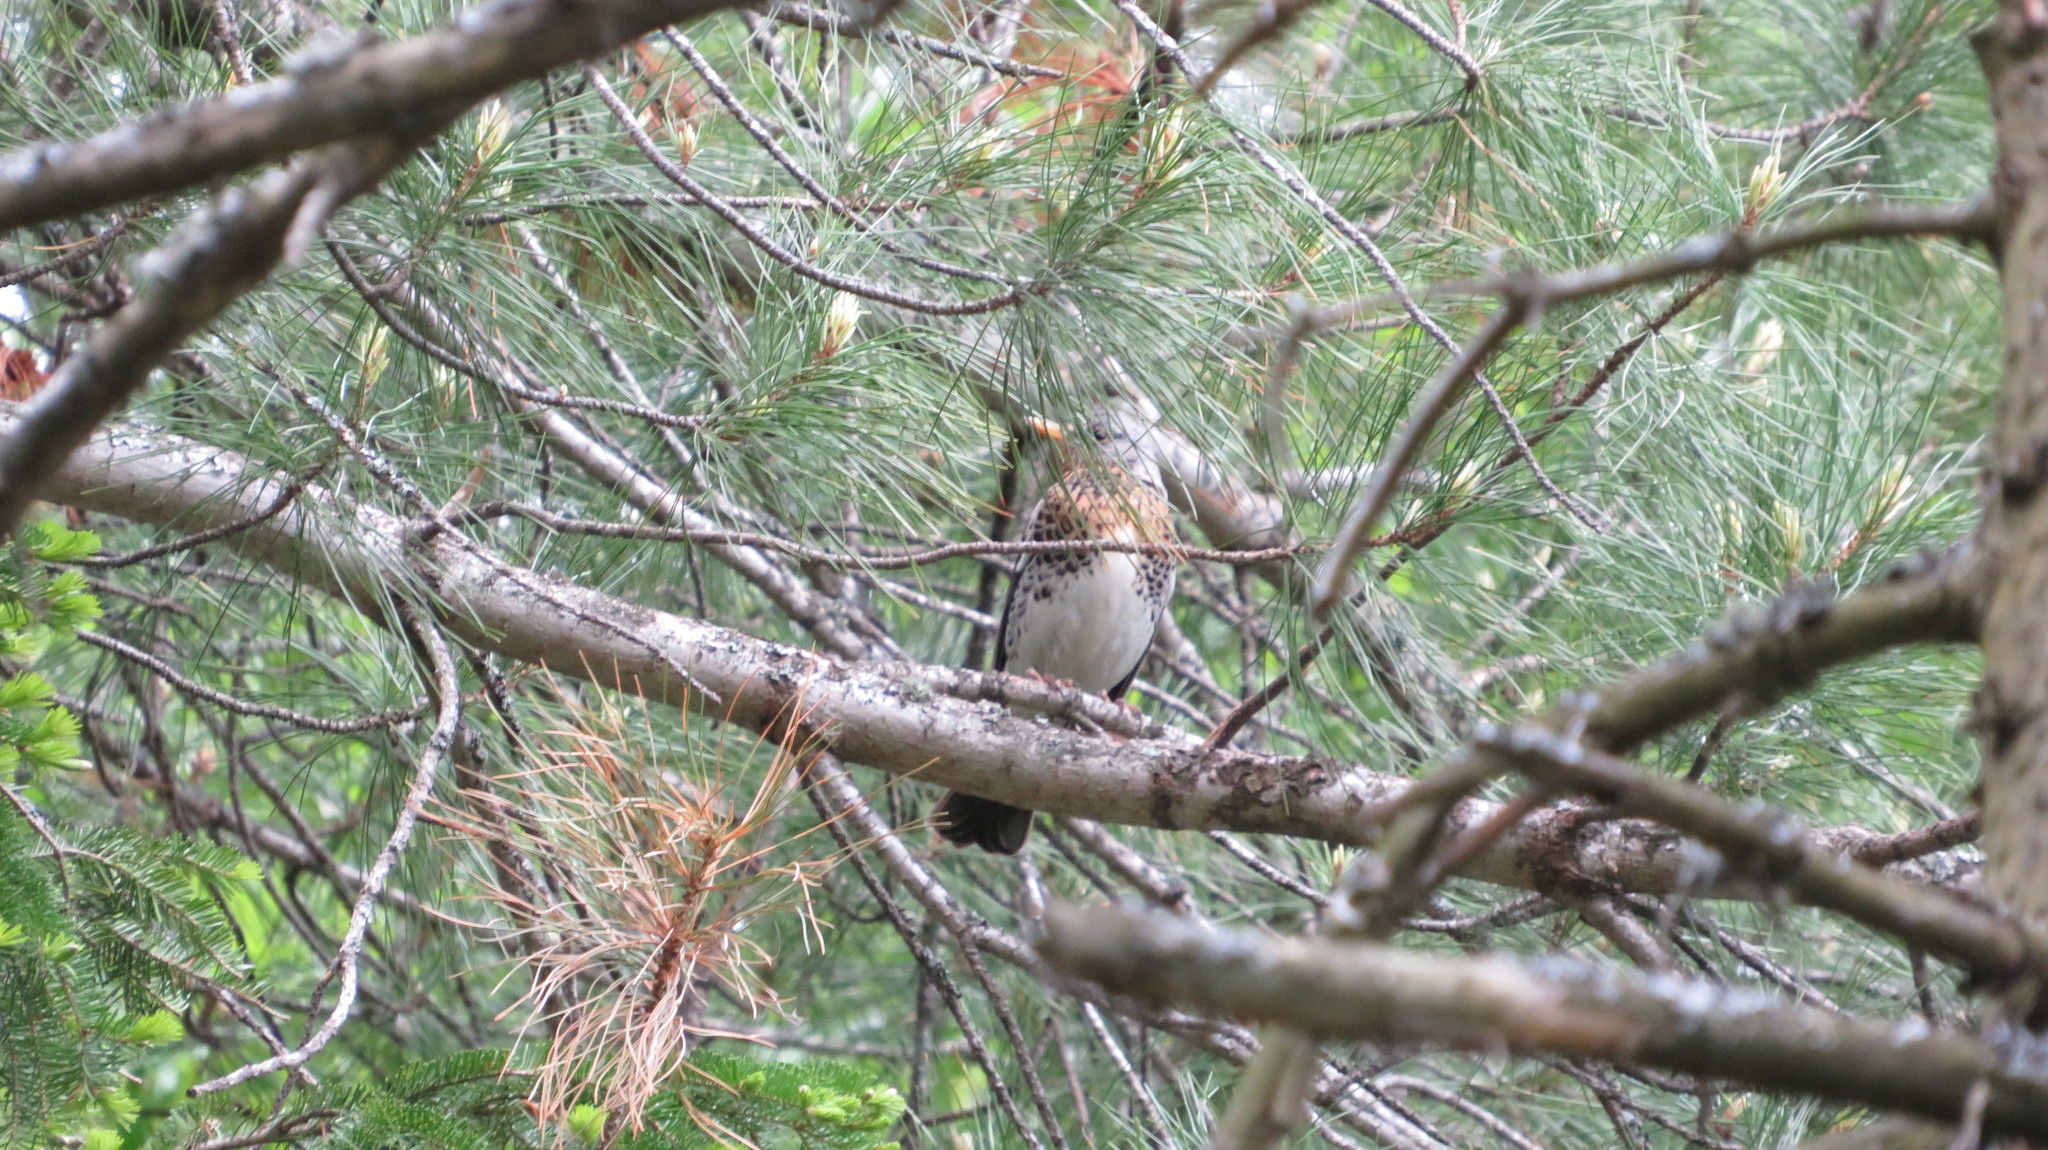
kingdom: Animalia
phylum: Chordata
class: Aves
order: Passeriformes
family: Turdidae
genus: Turdus
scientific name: Turdus pilaris
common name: Fieldfare
